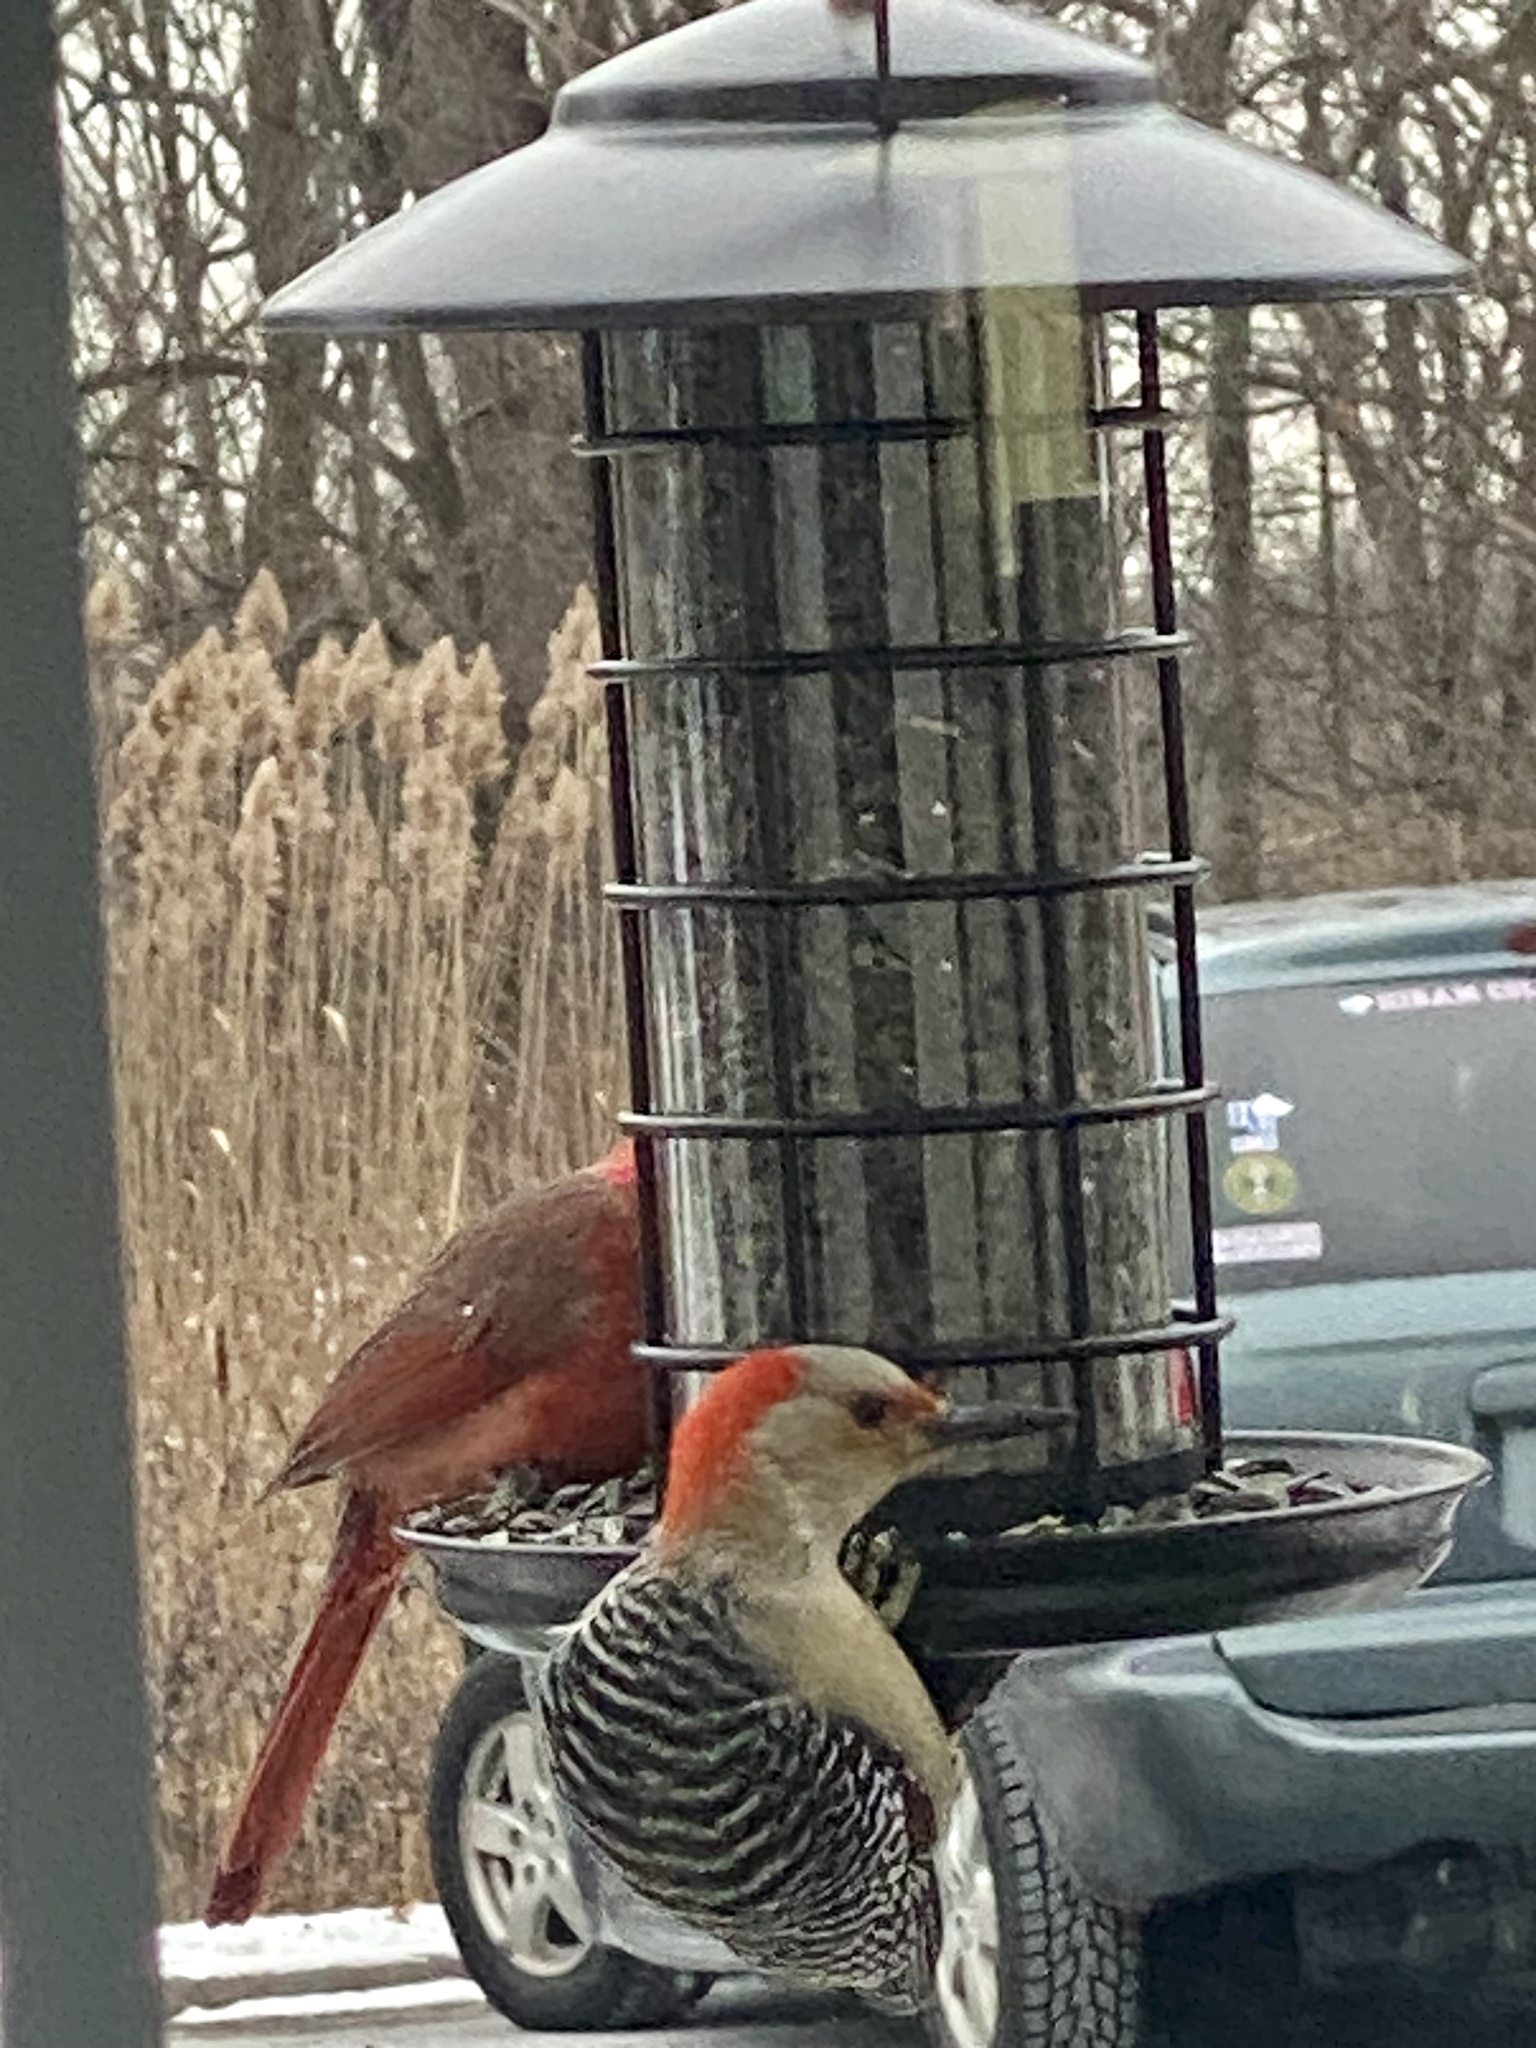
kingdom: Animalia
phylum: Chordata
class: Aves
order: Piciformes
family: Picidae
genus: Melanerpes
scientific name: Melanerpes carolinus
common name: Red-bellied woodpecker
